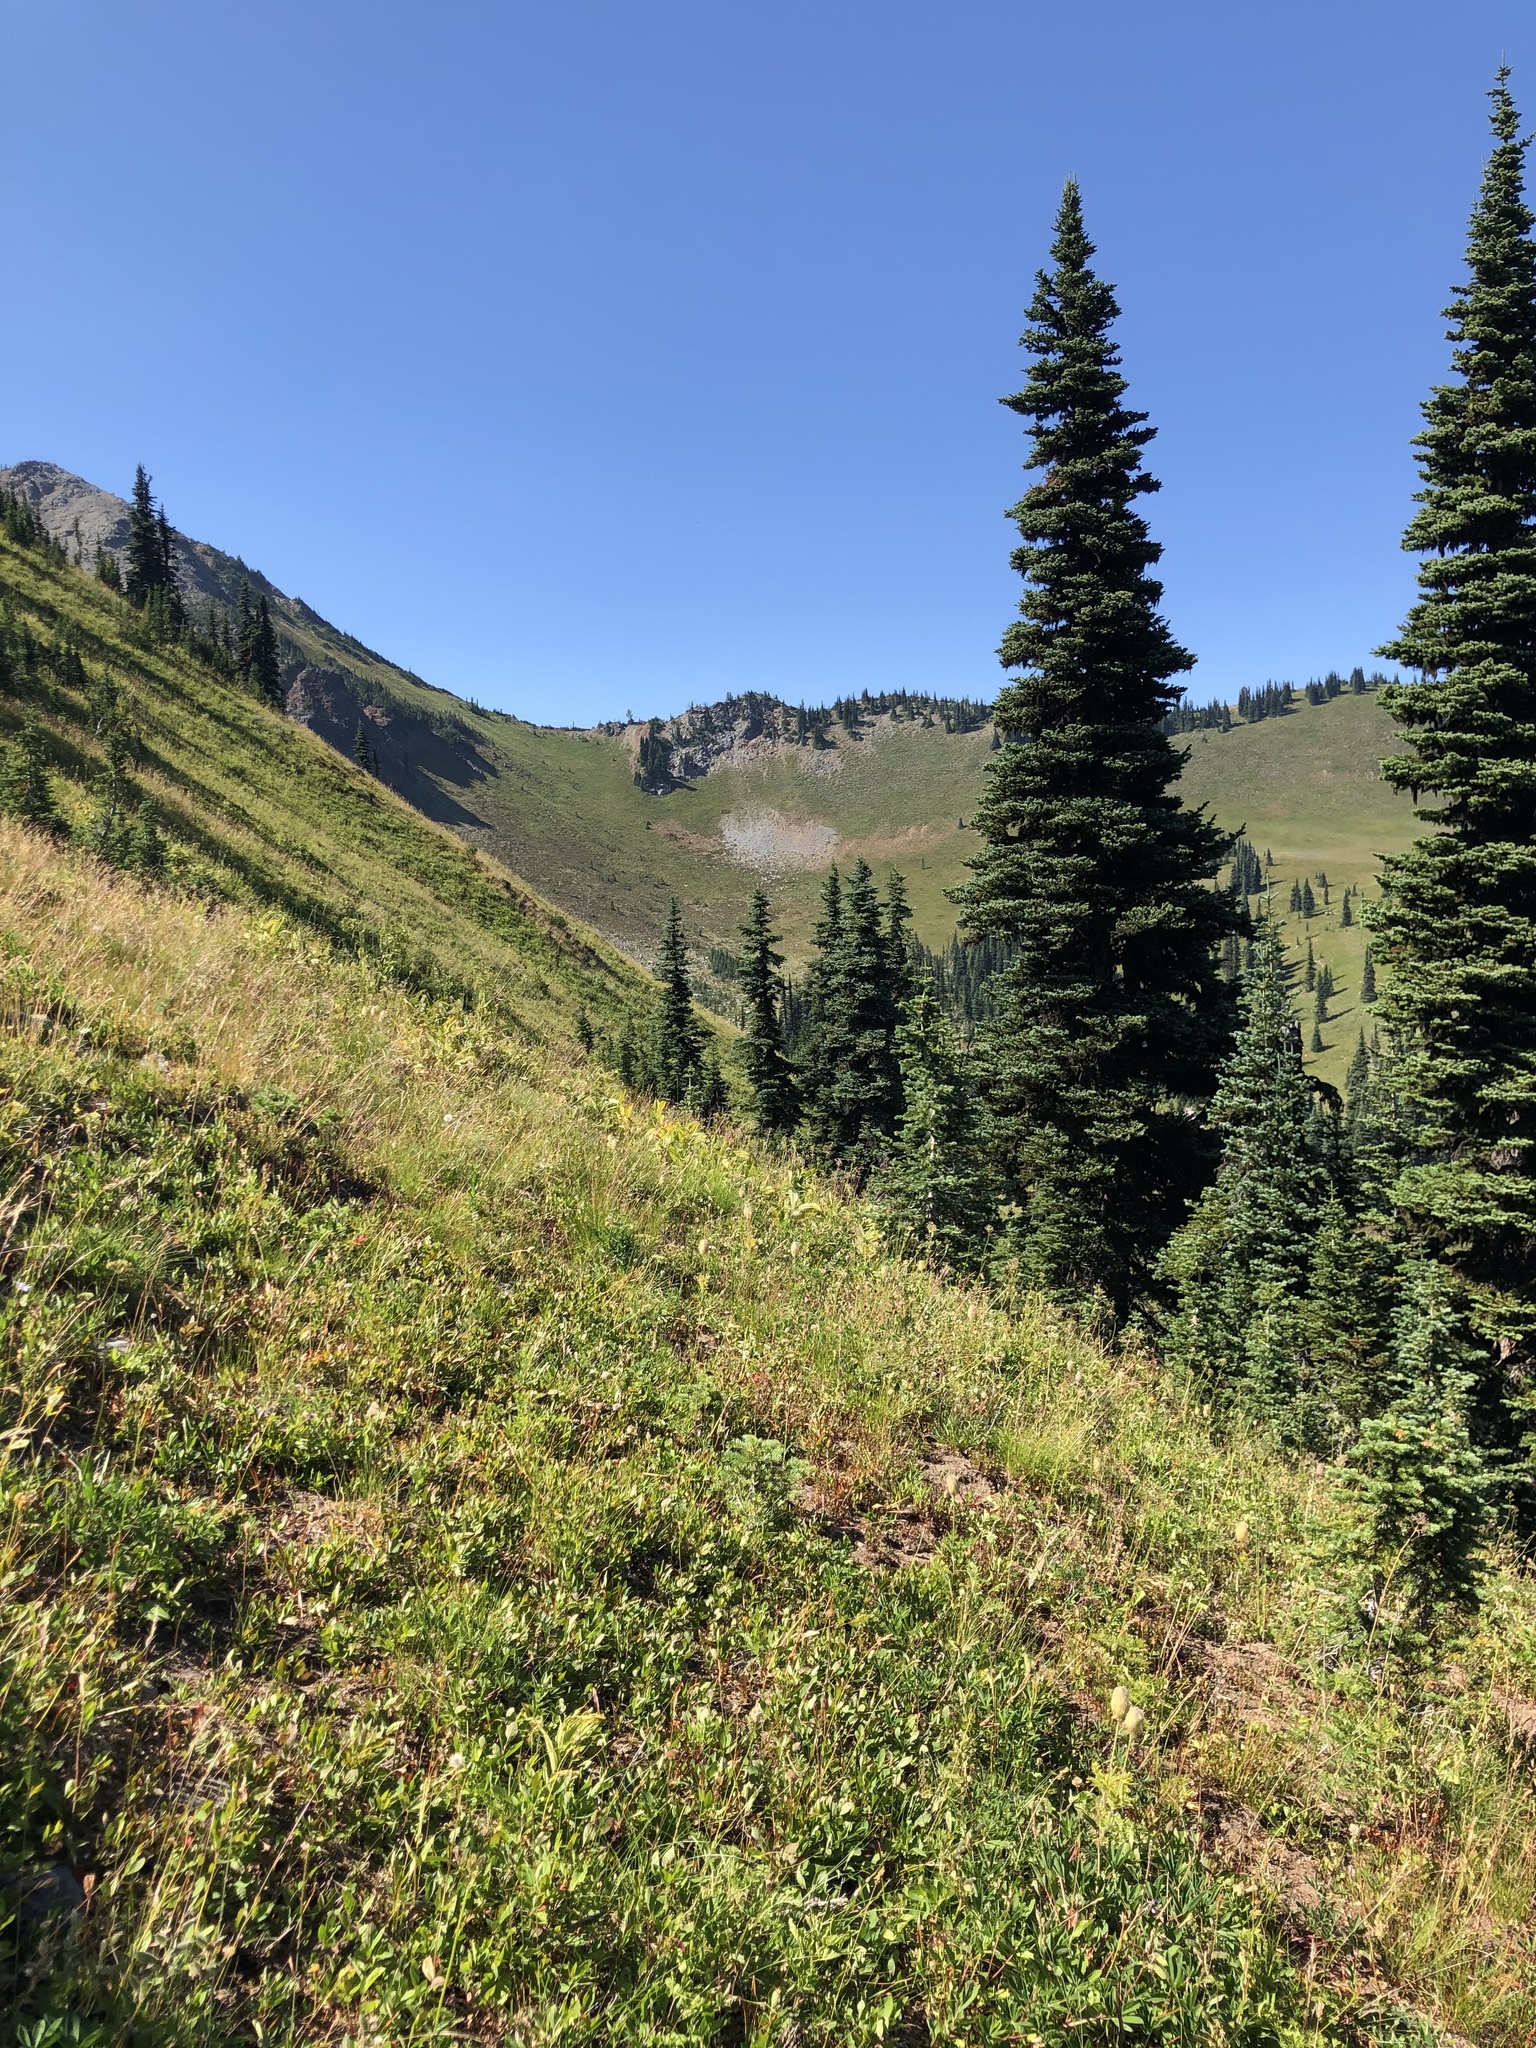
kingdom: Plantae
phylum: Tracheophyta
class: Pinopsida
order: Pinales
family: Pinaceae
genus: Abies
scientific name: Abies lasiocarpa
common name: Subalpine fir
